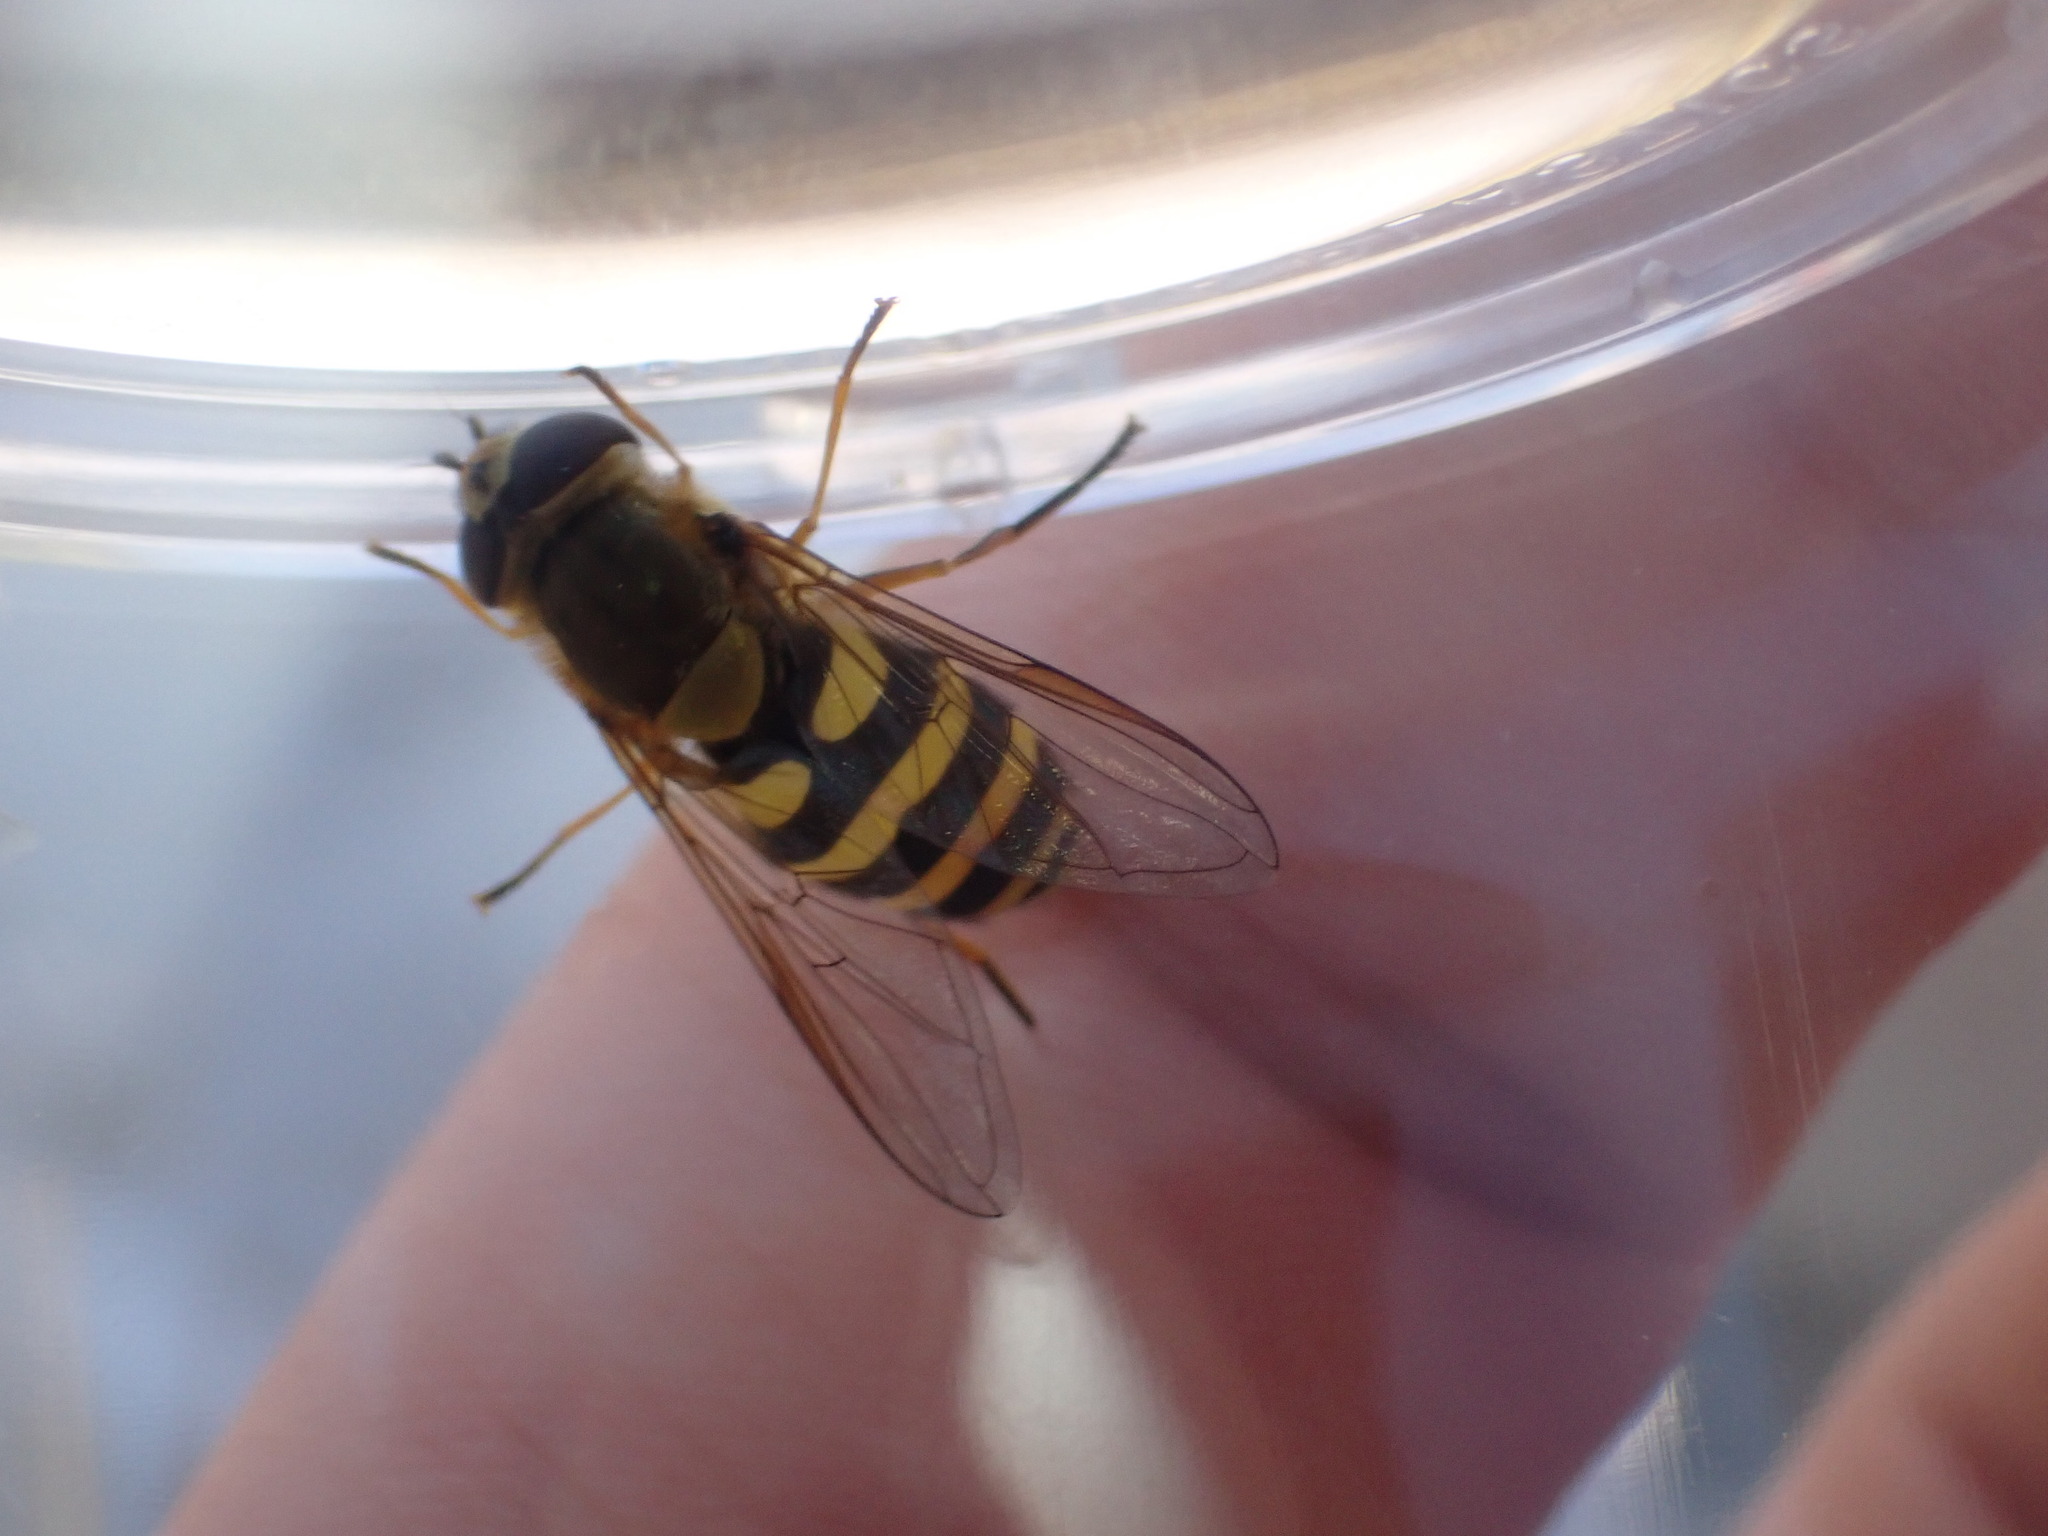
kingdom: Animalia
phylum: Arthropoda
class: Insecta
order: Diptera
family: Syrphidae
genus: Syrphus
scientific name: Syrphus ribesii
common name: Common flower fly
